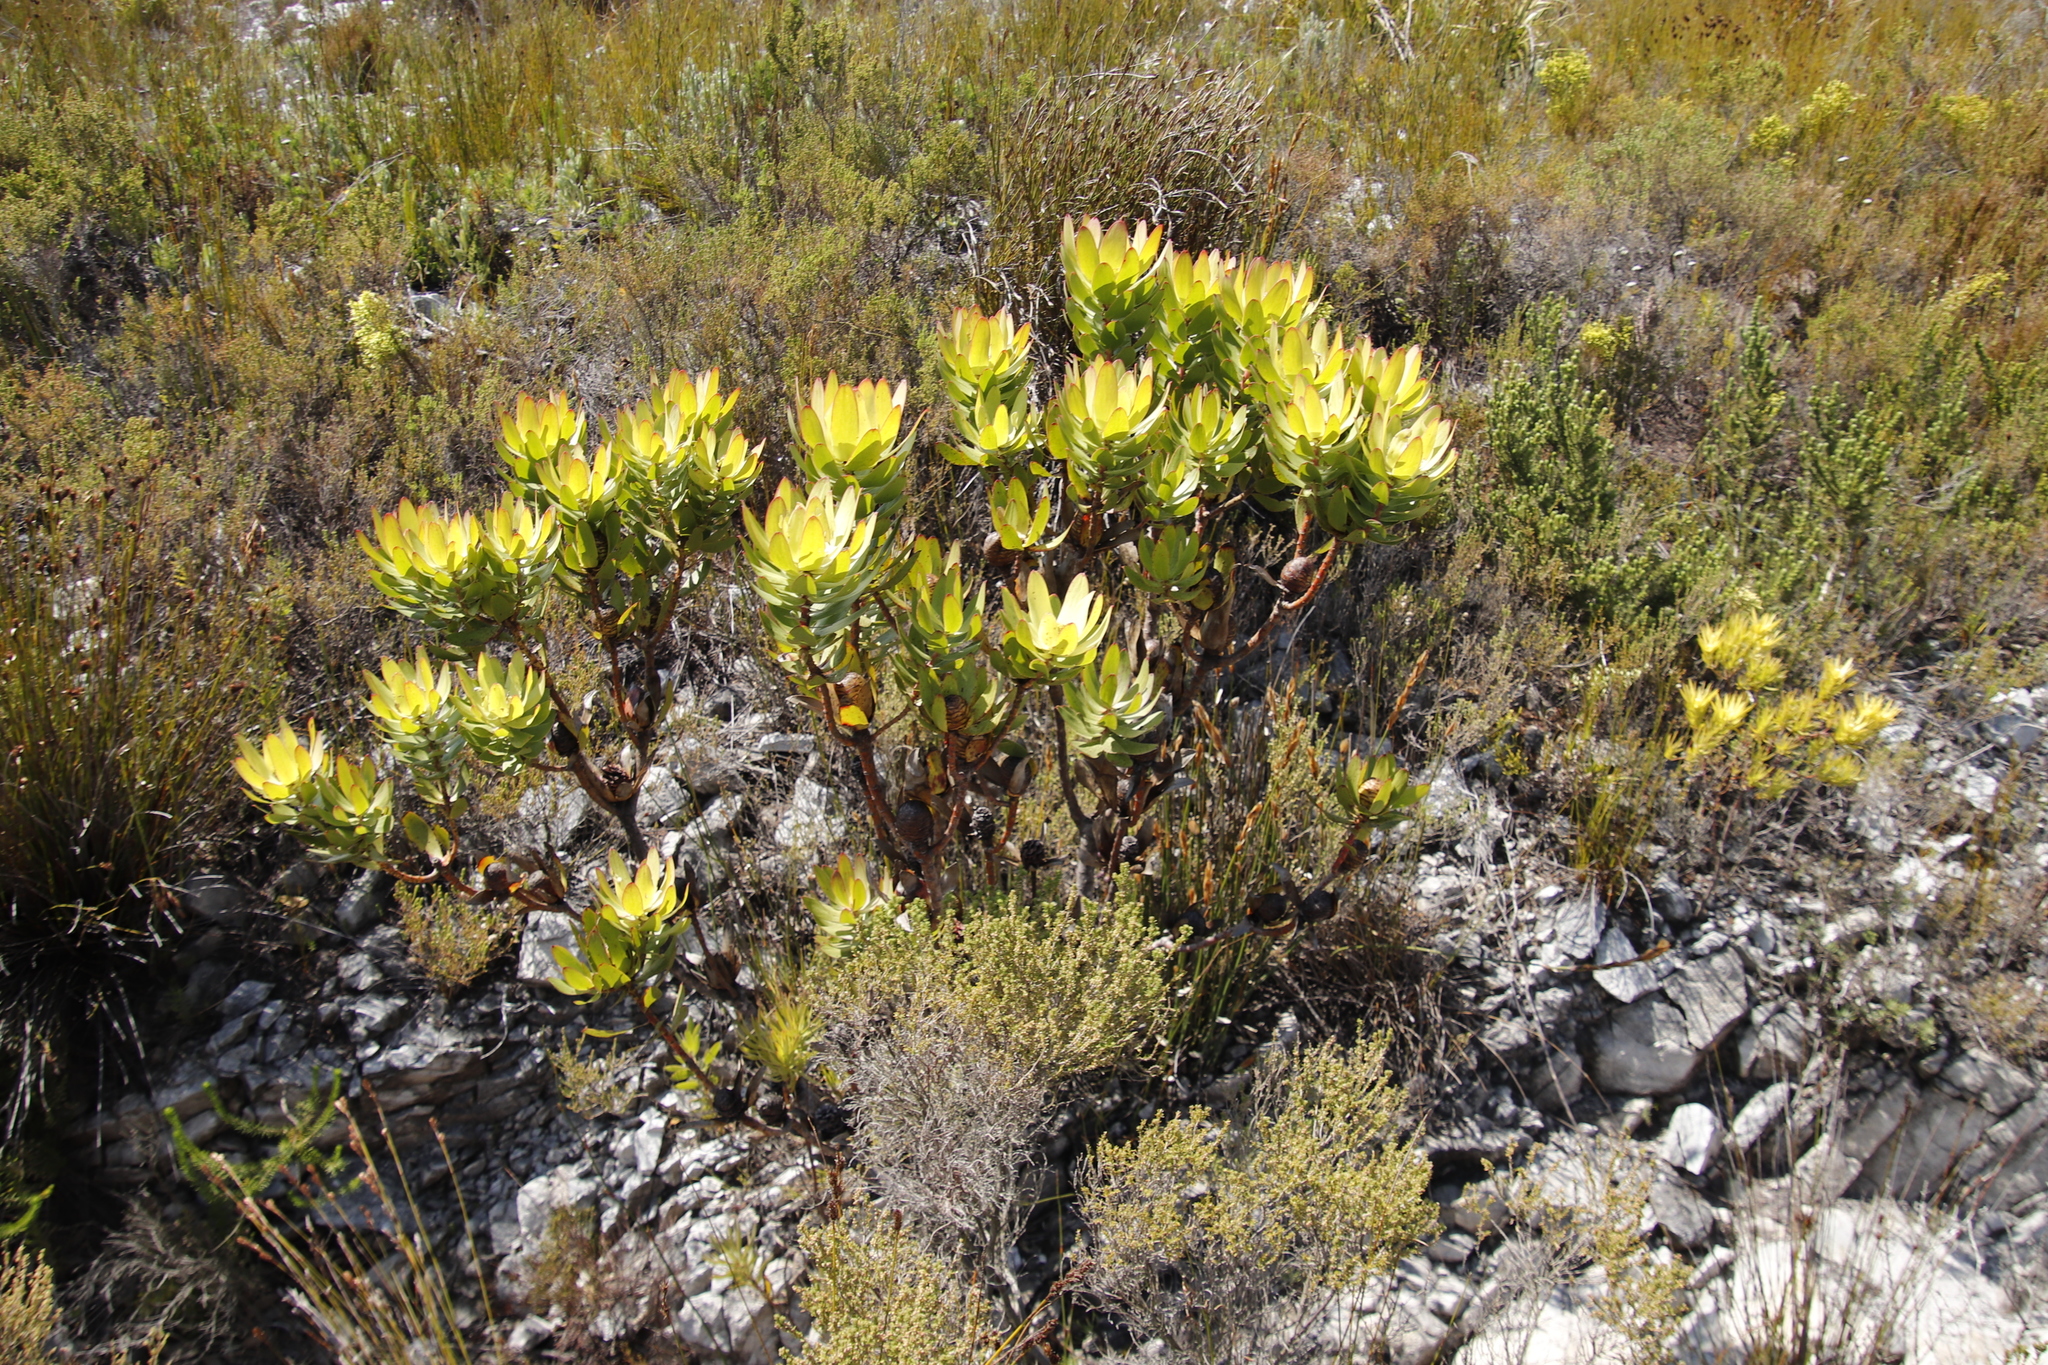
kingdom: Plantae
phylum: Tracheophyta
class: Magnoliopsida
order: Proteales
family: Proteaceae
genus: Leucadendron
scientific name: Leucadendron laureolum
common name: Golden sunshinebush
